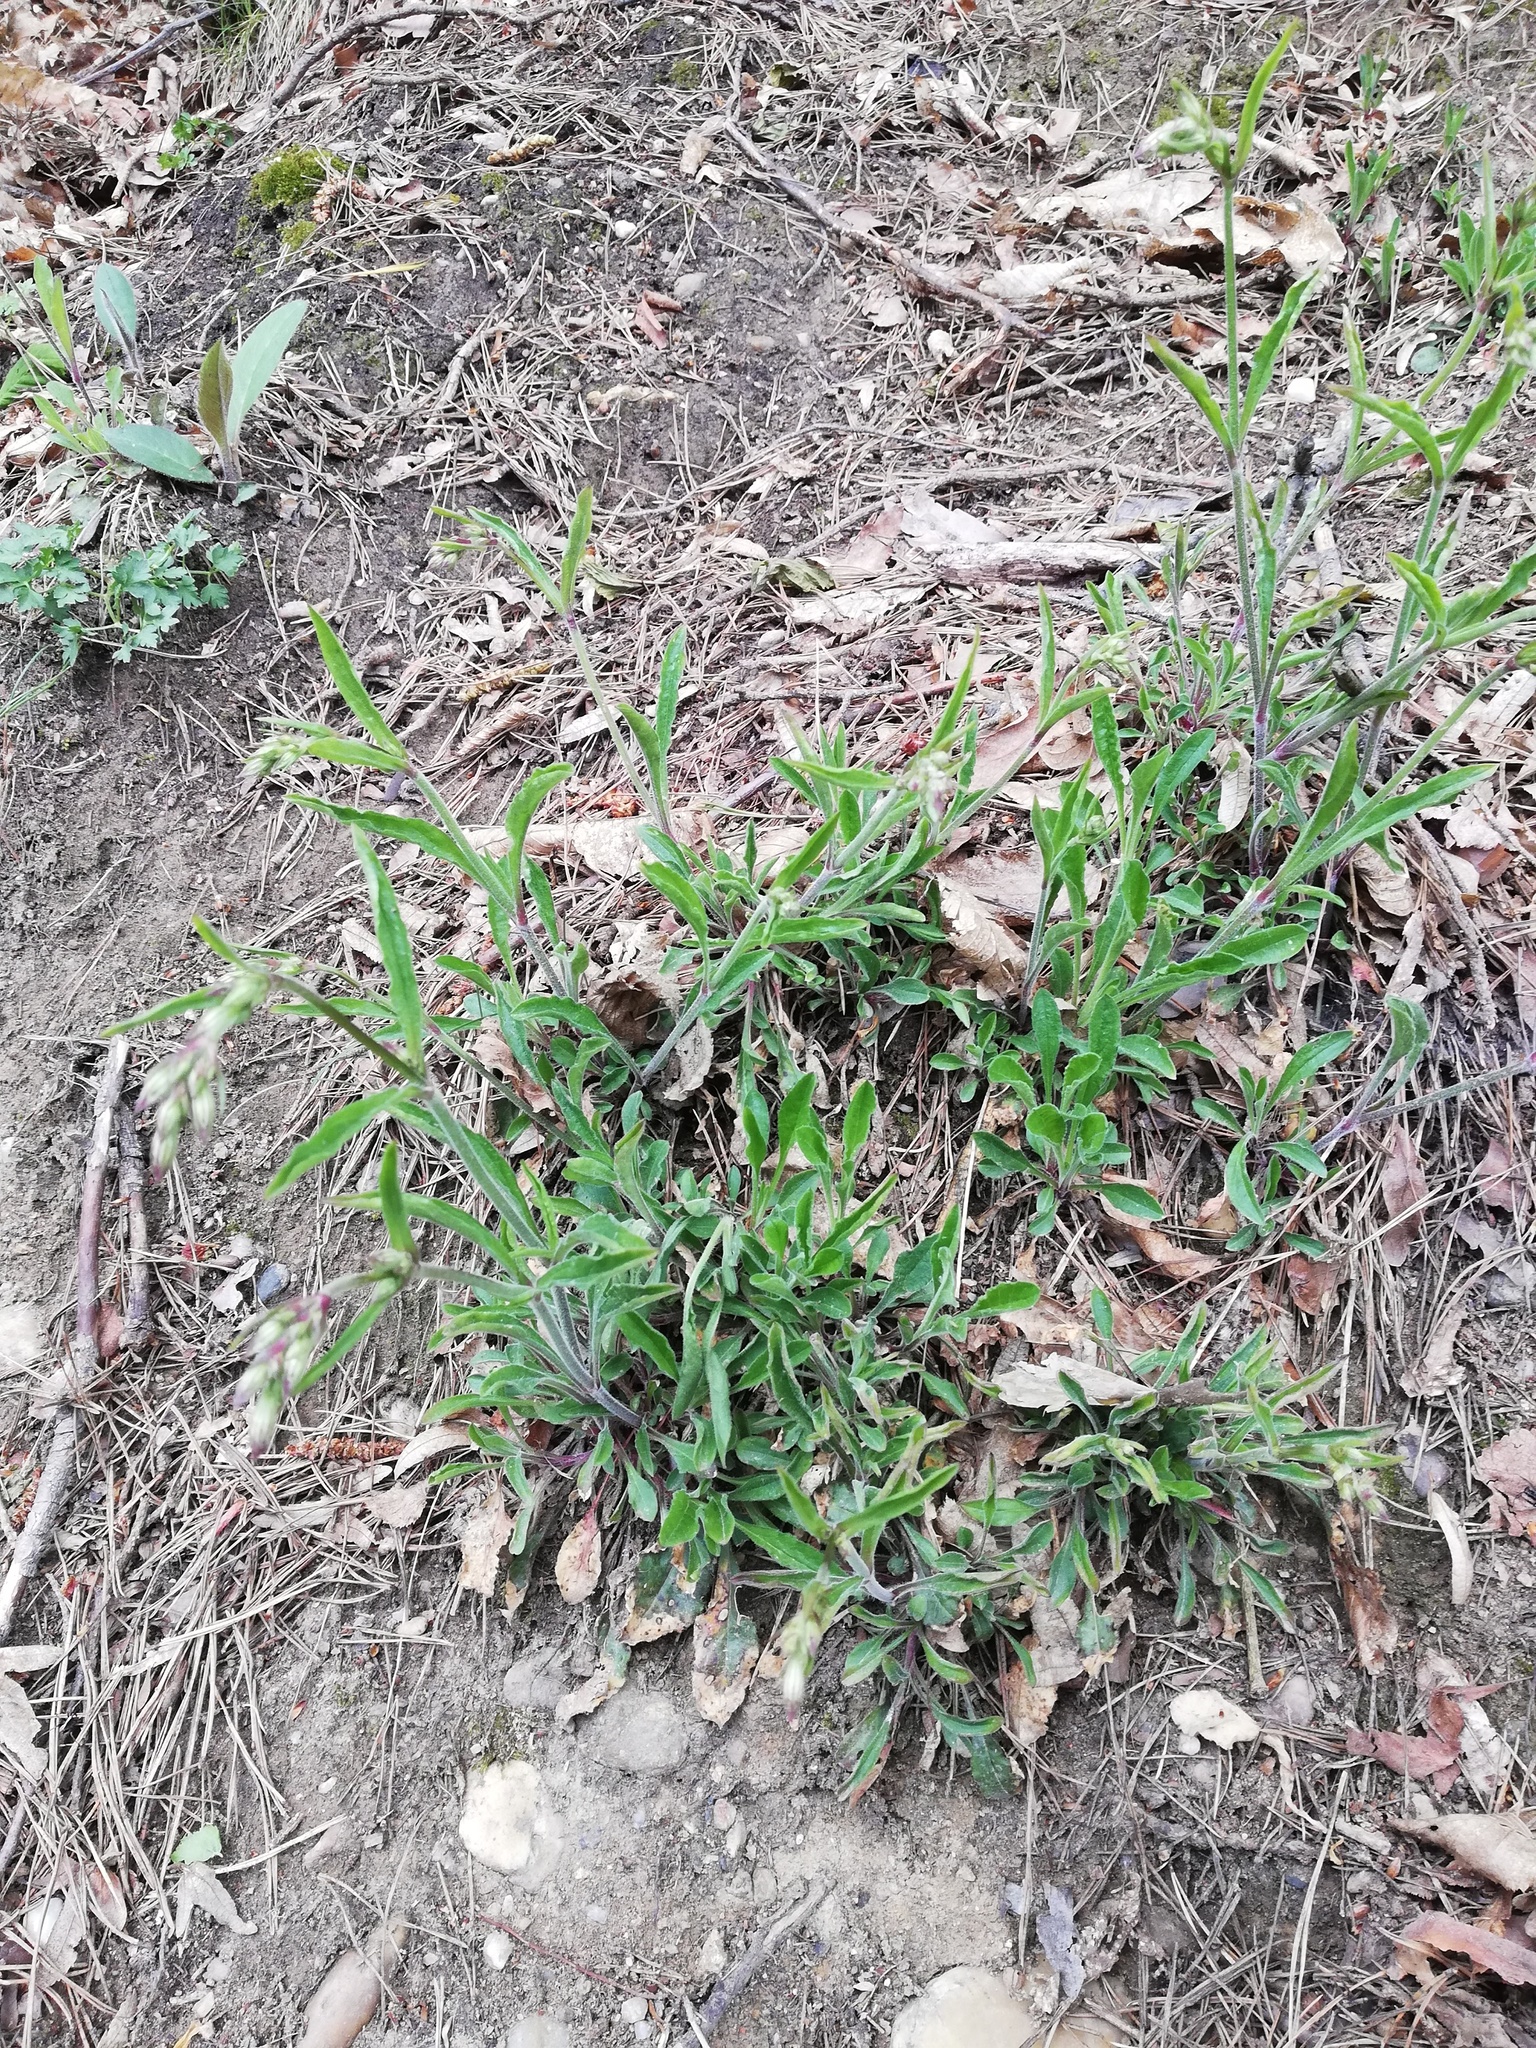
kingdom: Plantae
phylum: Tracheophyta
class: Magnoliopsida
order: Caryophyllales
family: Caryophyllaceae
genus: Silene
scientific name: Silene nutans
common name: Nottingham catchfly
